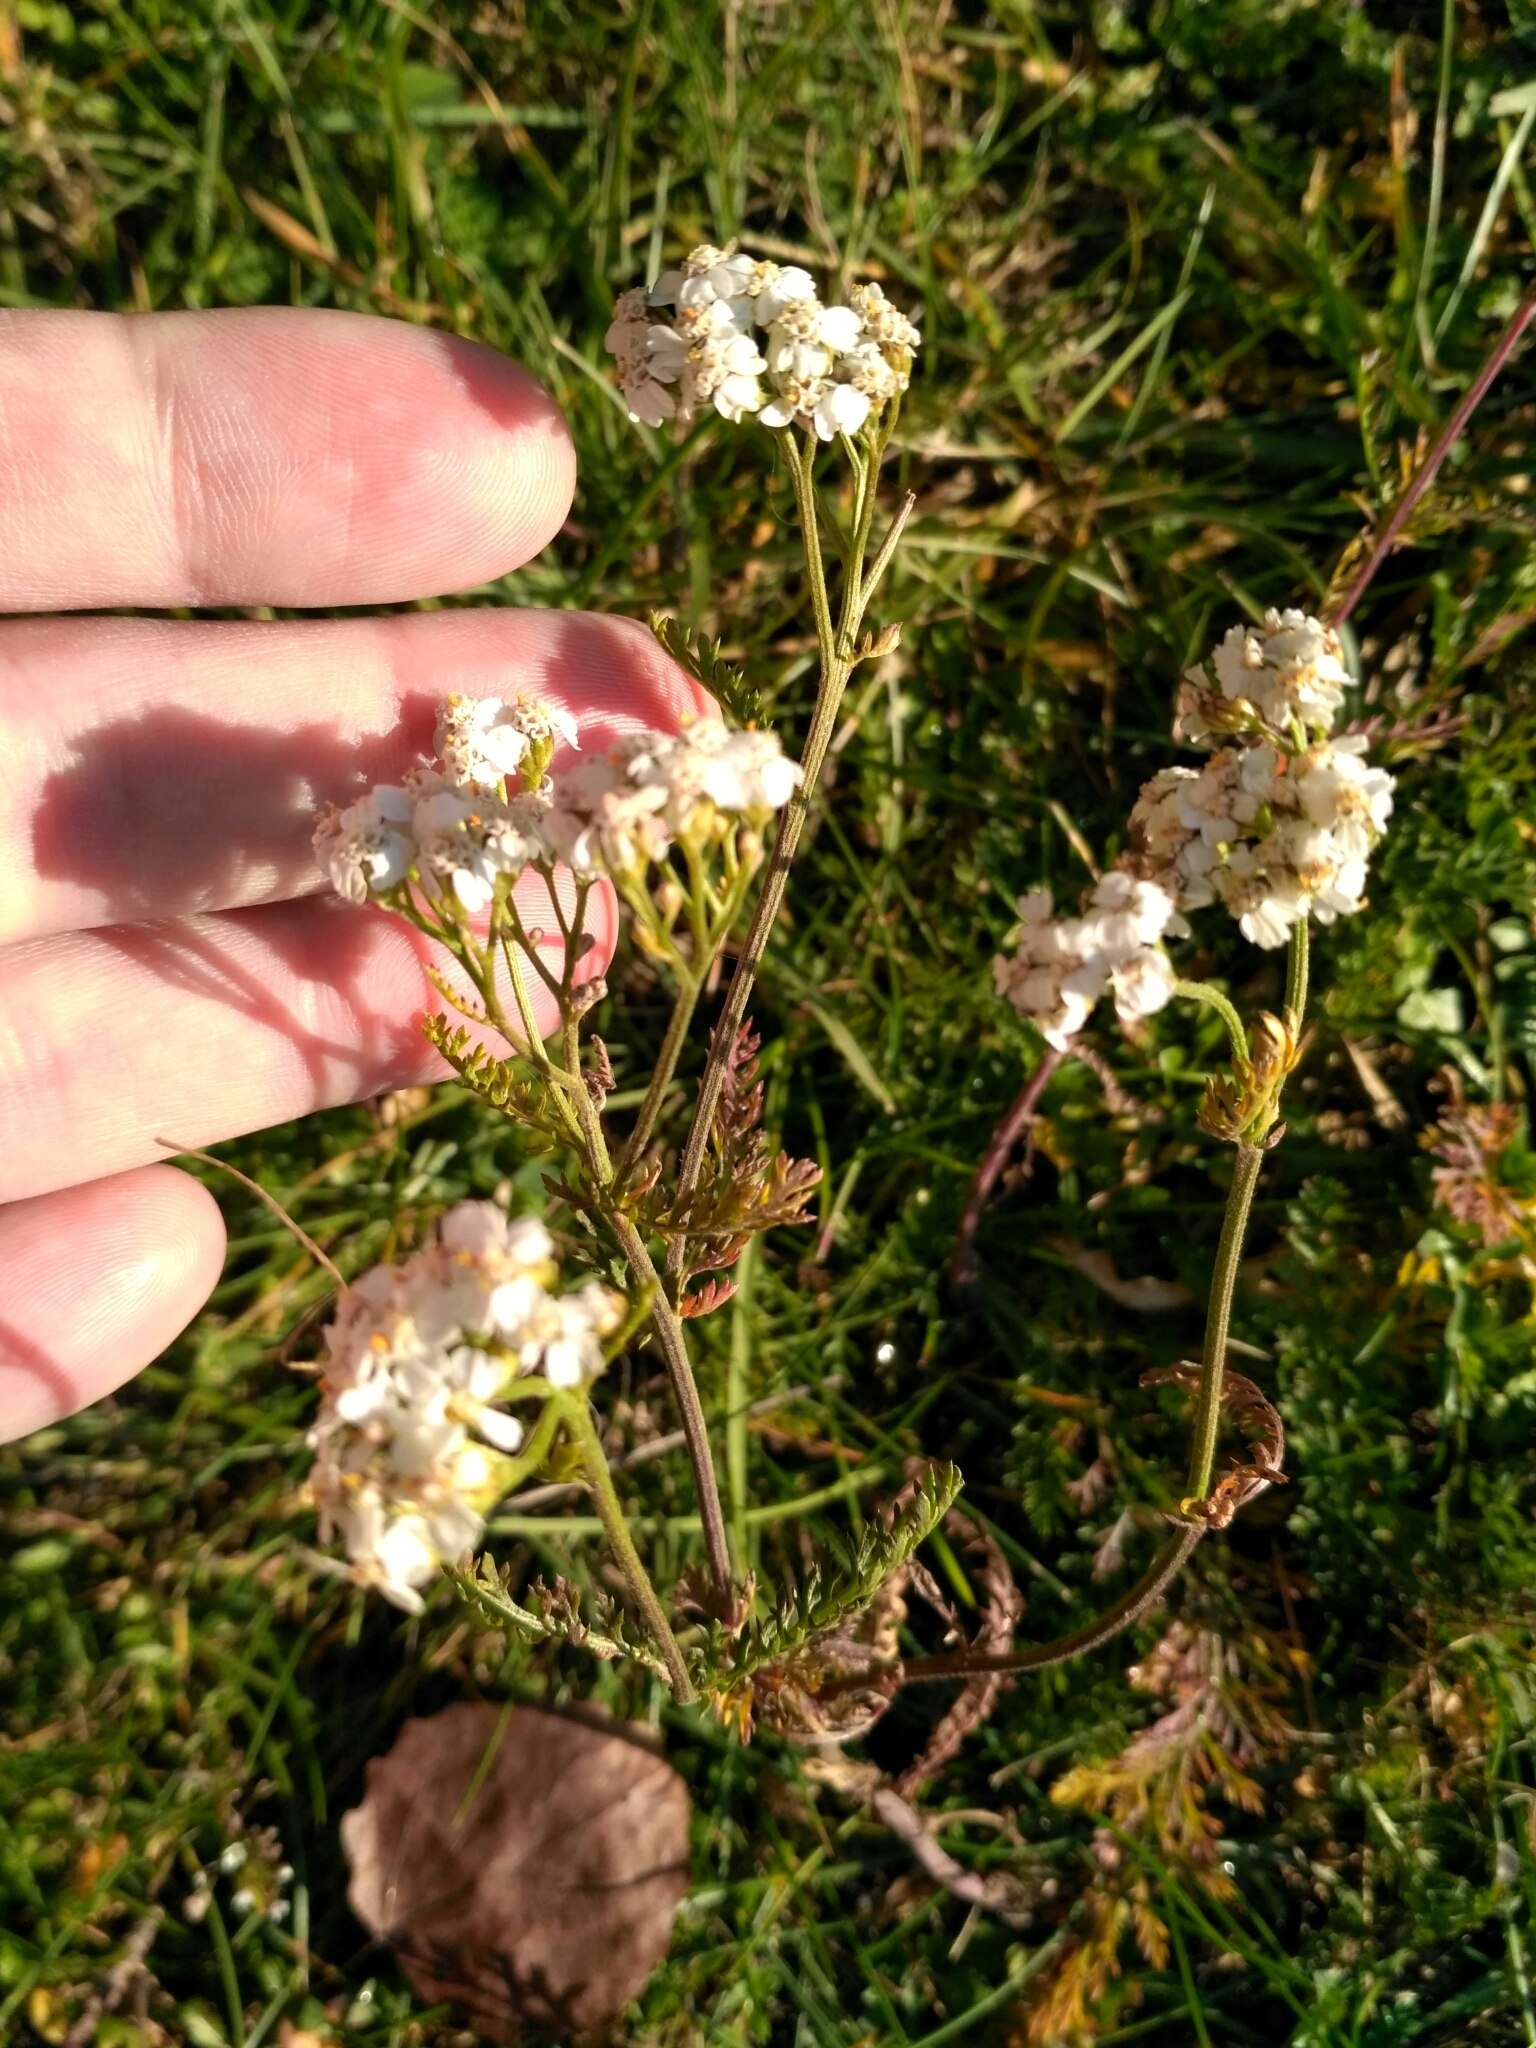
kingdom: Plantae
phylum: Tracheophyta
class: Magnoliopsida
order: Asterales
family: Asteraceae
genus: Achillea
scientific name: Achillea millefolium
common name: Yarrow
